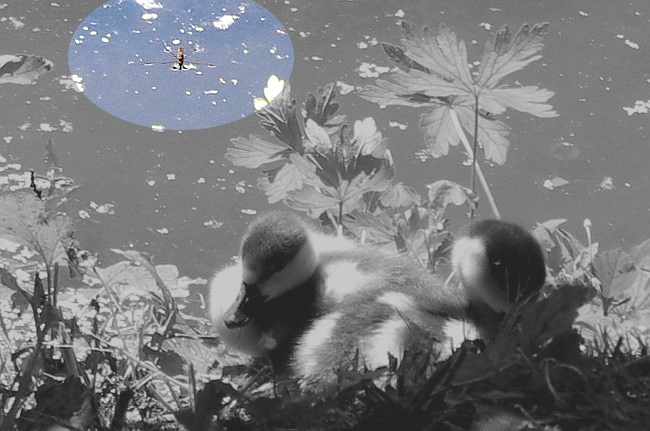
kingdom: Animalia
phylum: Arthropoda
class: Insecta
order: Hemiptera
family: Gerridae
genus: Gerris
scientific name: Gerris lacustris
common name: Common pondskater
